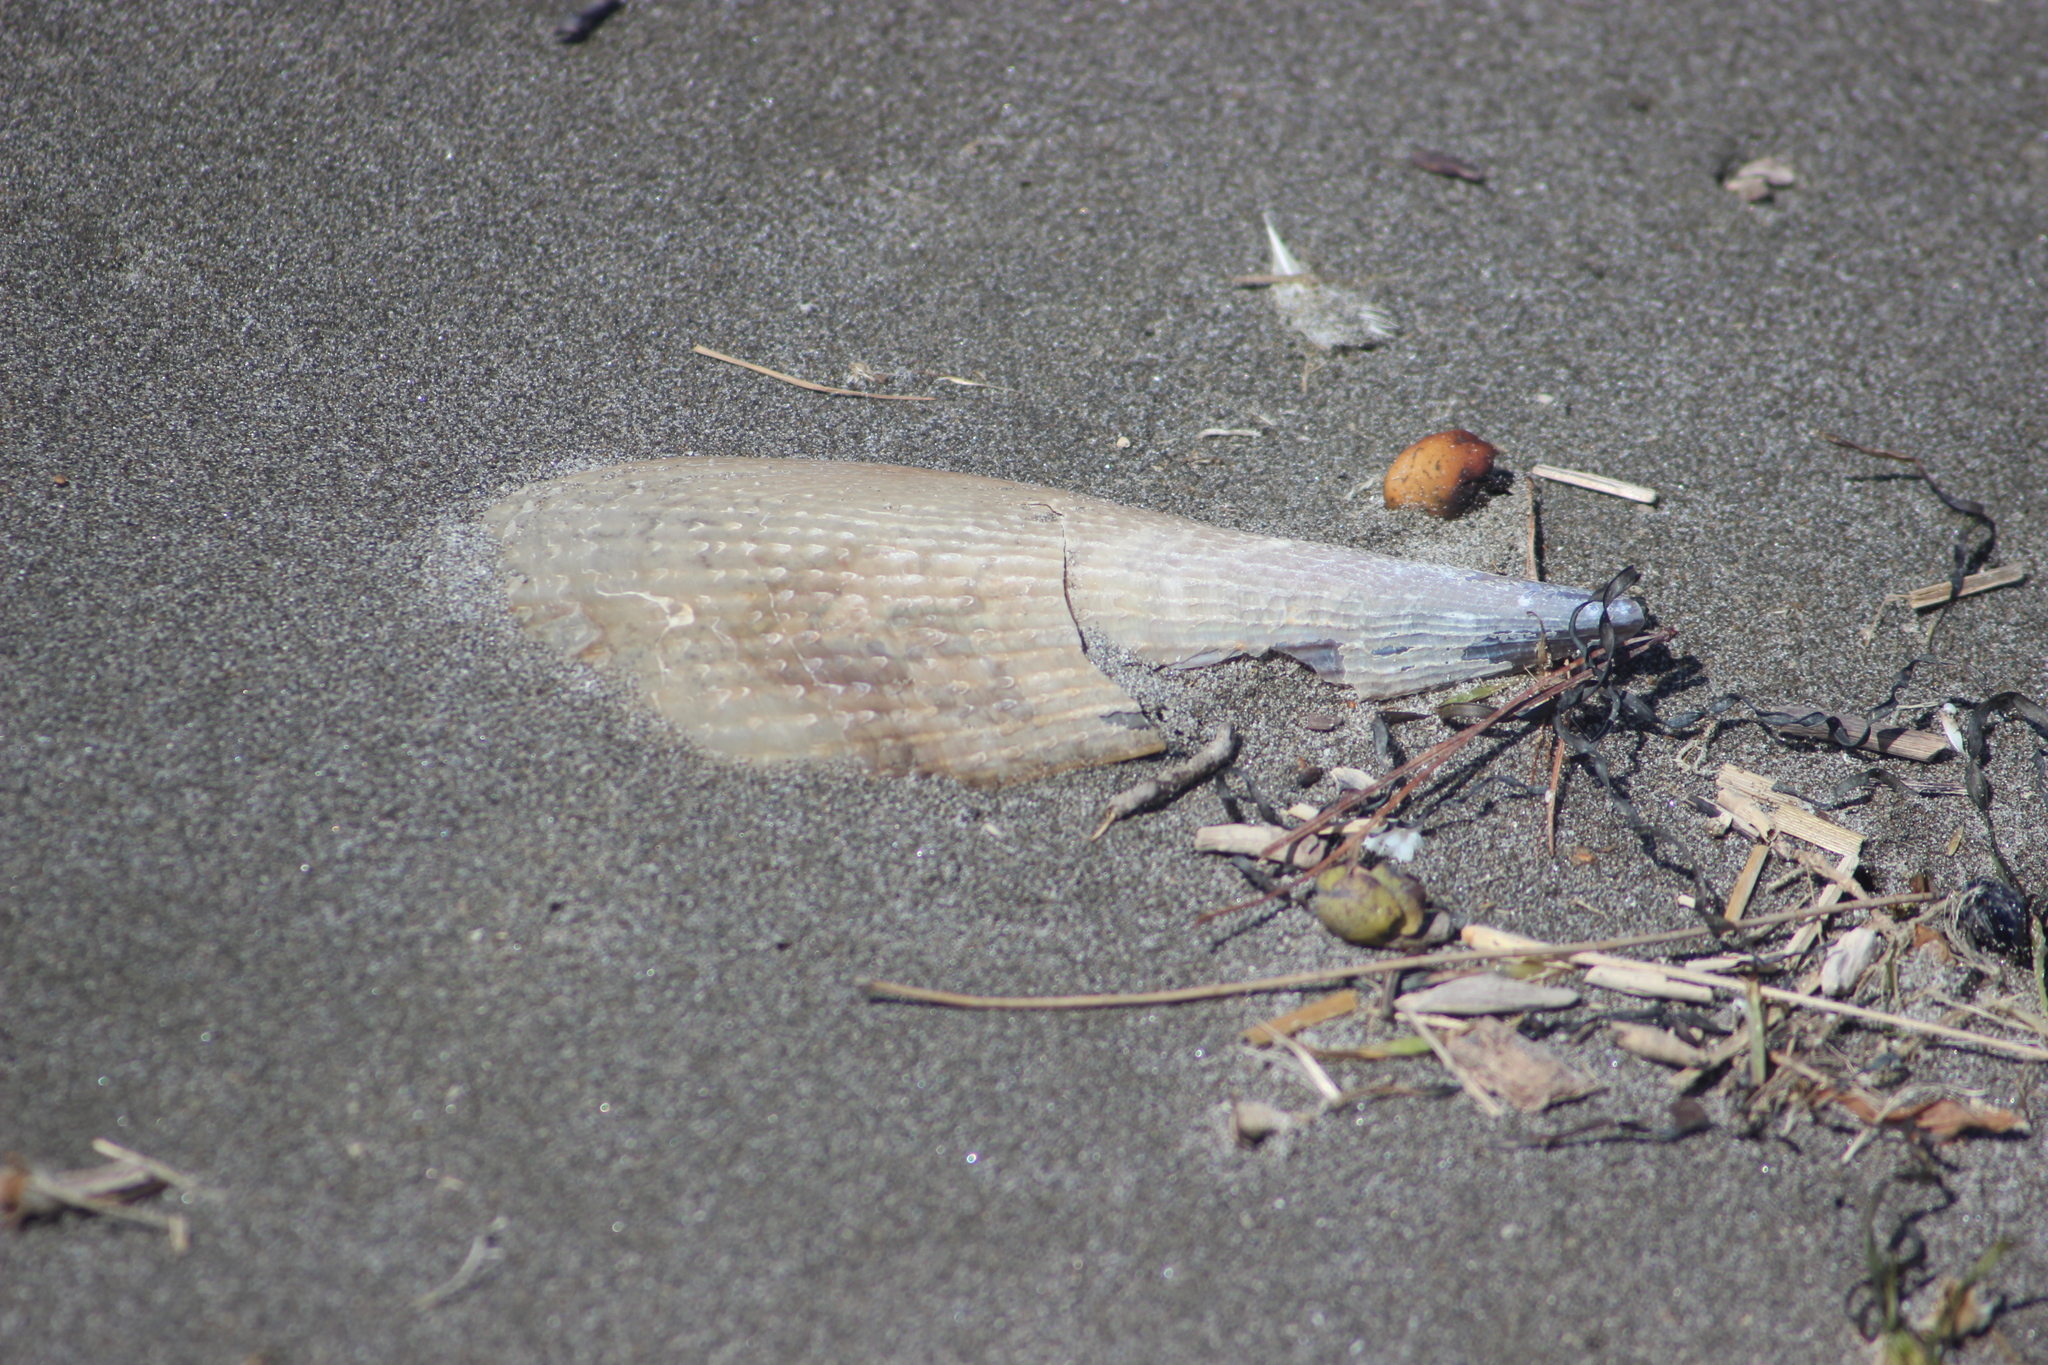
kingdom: Animalia
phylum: Mollusca
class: Bivalvia
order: Ostreida
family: Pinnidae
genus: Atrina
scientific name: Atrina zelandica
